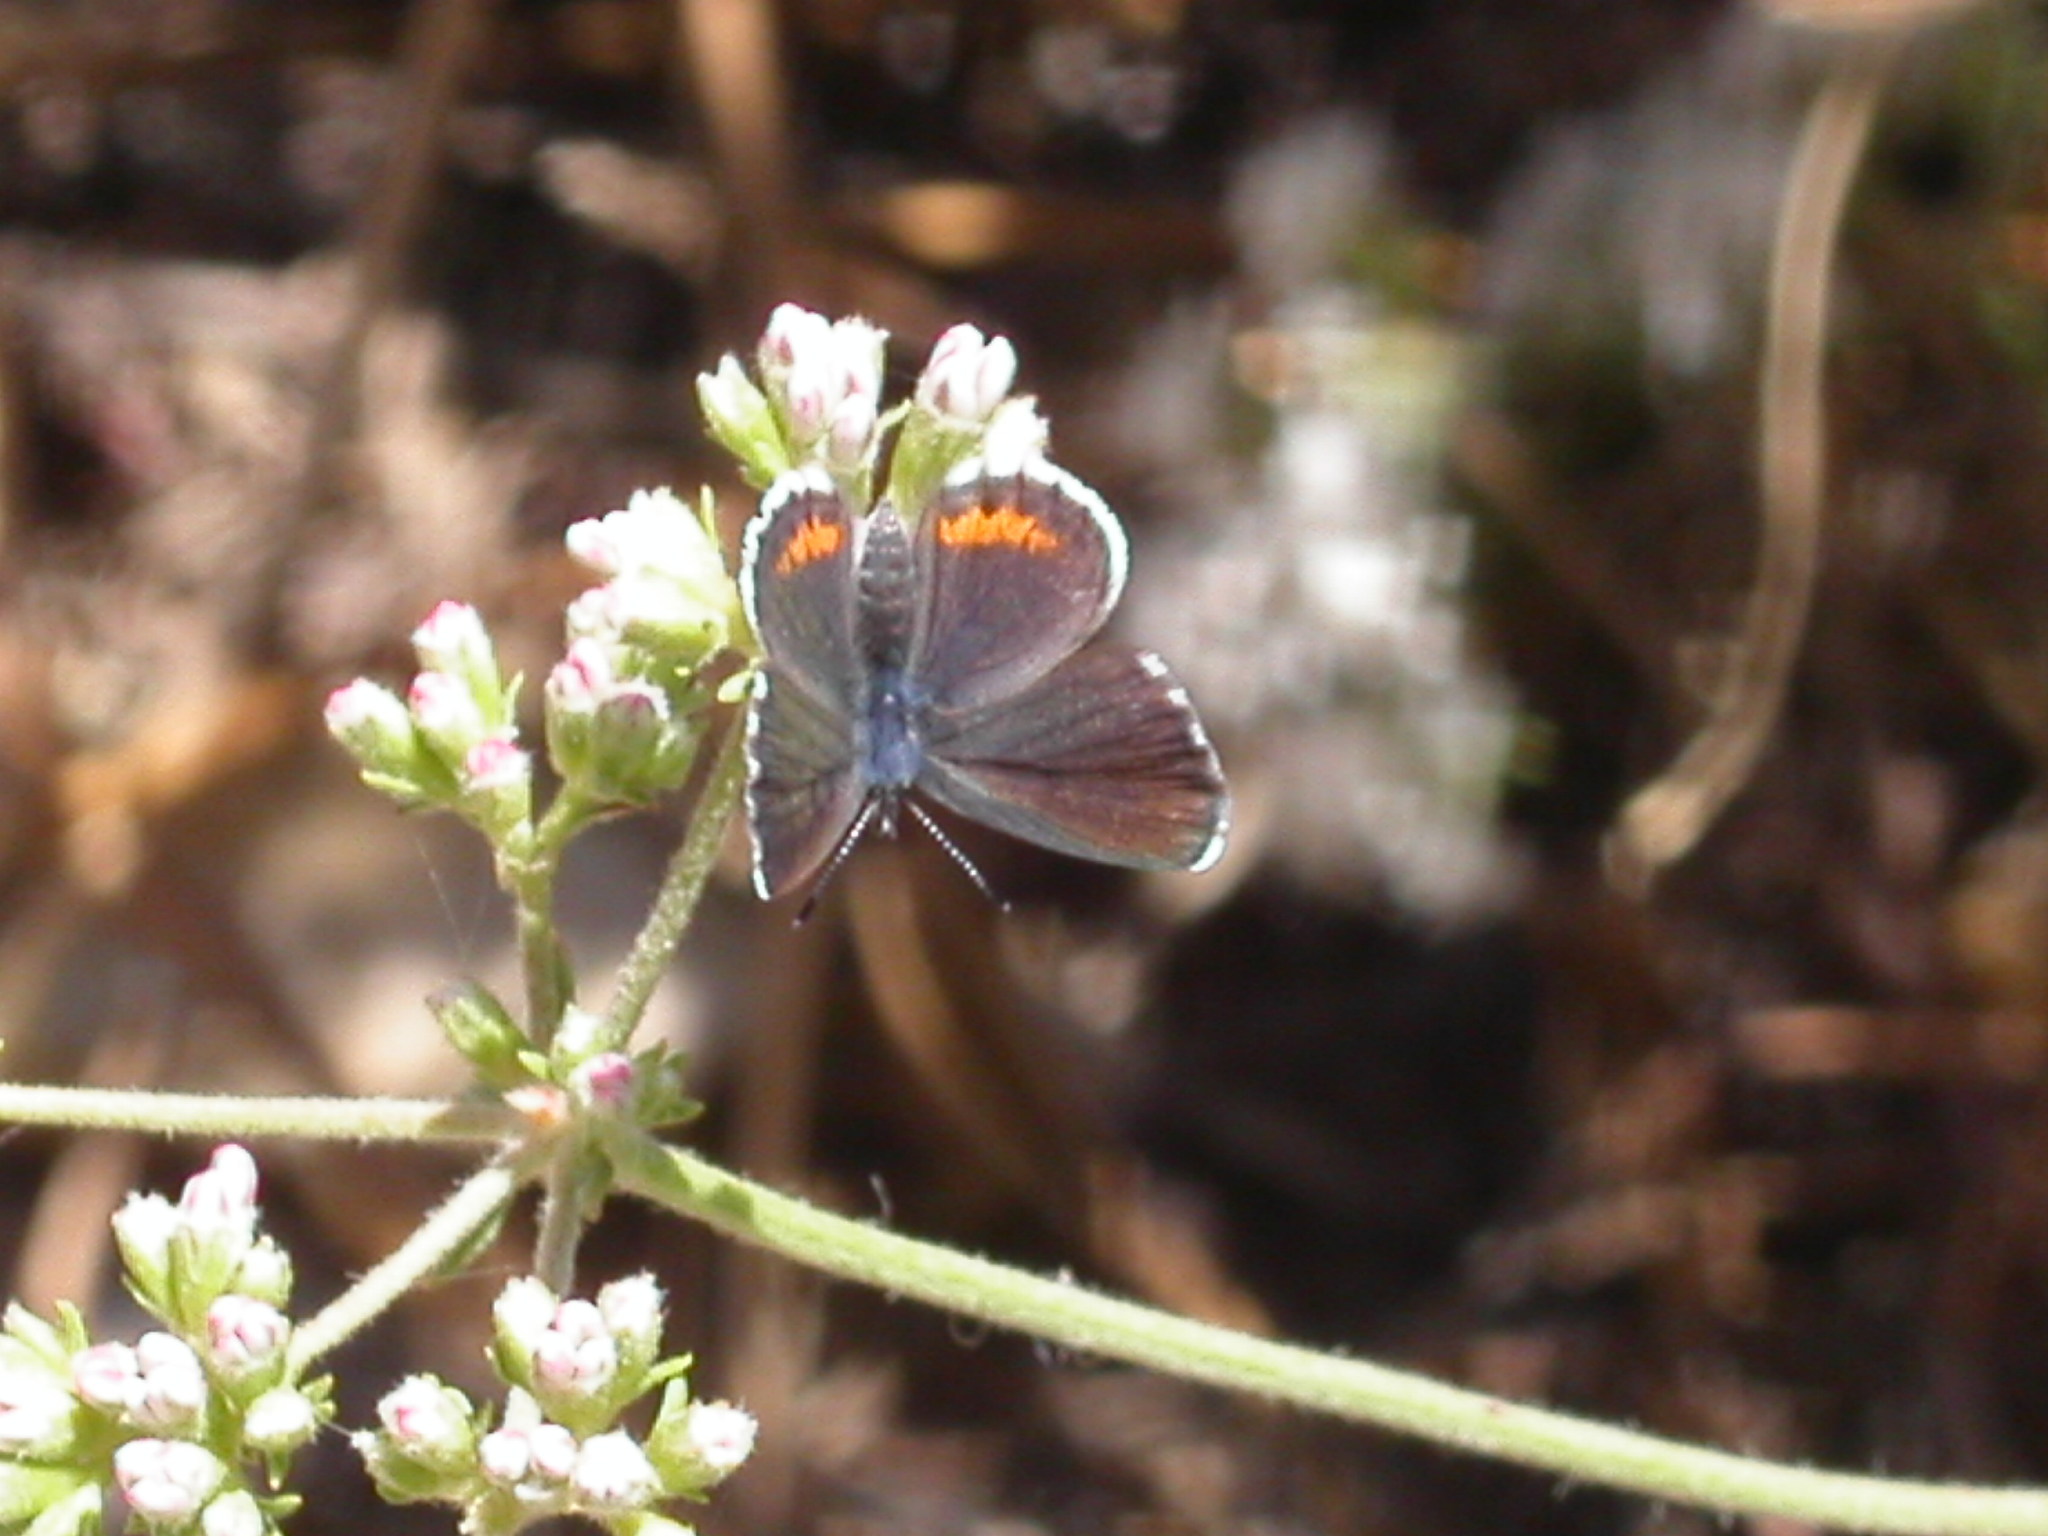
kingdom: Animalia
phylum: Arthropoda
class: Insecta
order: Lepidoptera
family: Lycaenidae
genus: Philotes
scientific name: Philotes bernardino
